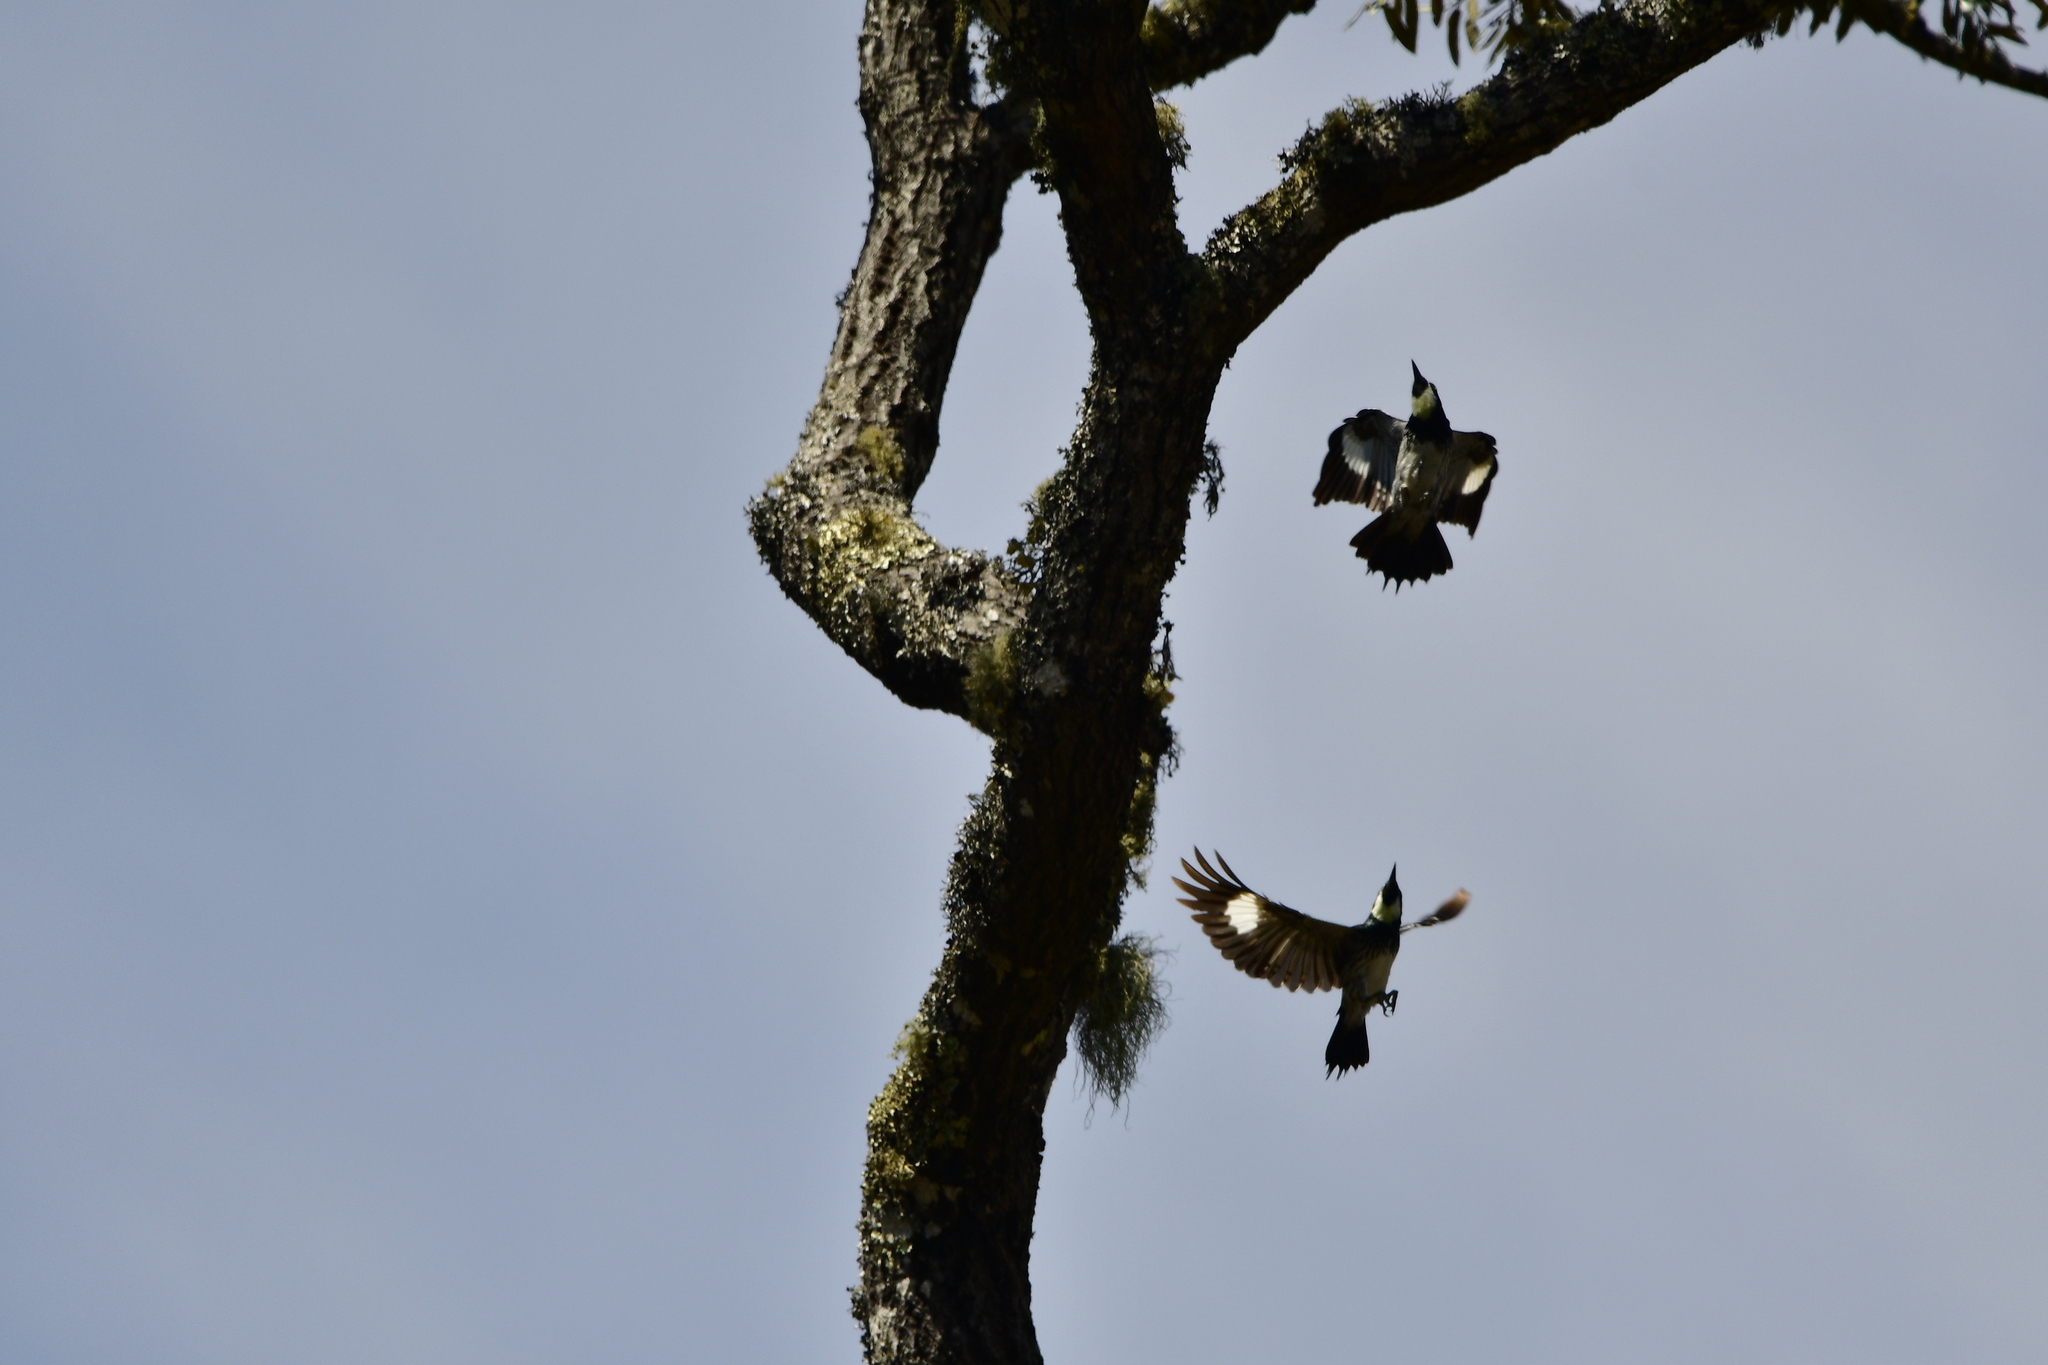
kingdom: Animalia
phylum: Chordata
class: Aves
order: Piciformes
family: Picidae
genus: Melanerpes
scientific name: Melanerpes formicivorus
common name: Acorn woodpecker
